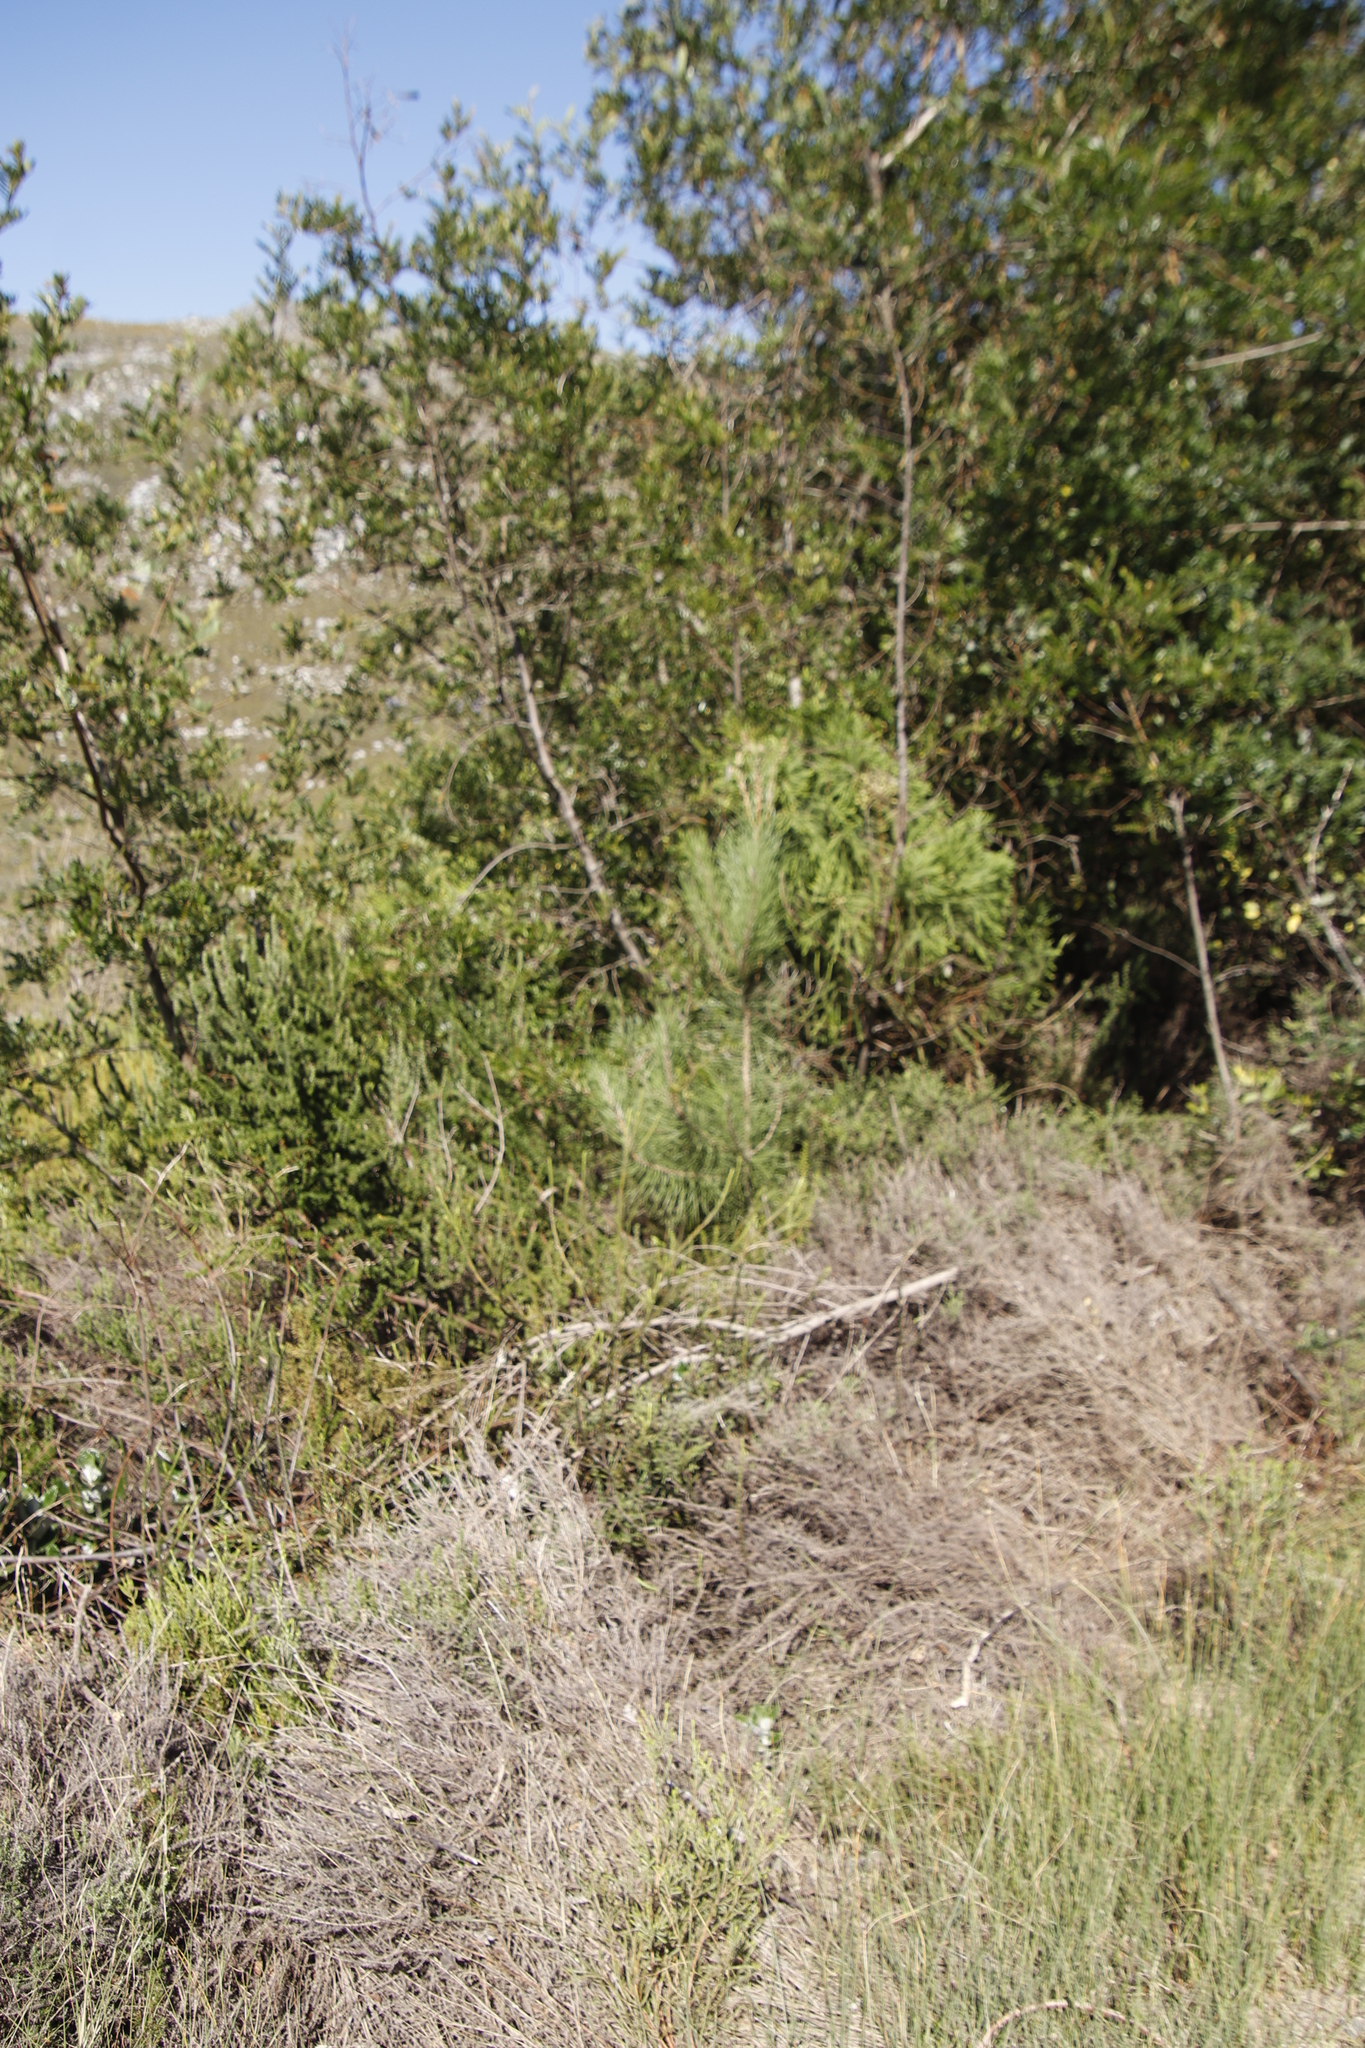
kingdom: Plantae
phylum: Tracheophyta
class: Pinopsida
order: Pinales
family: Pinaceae
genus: Pinus
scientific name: Pinus pinaster
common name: Maritime pine
